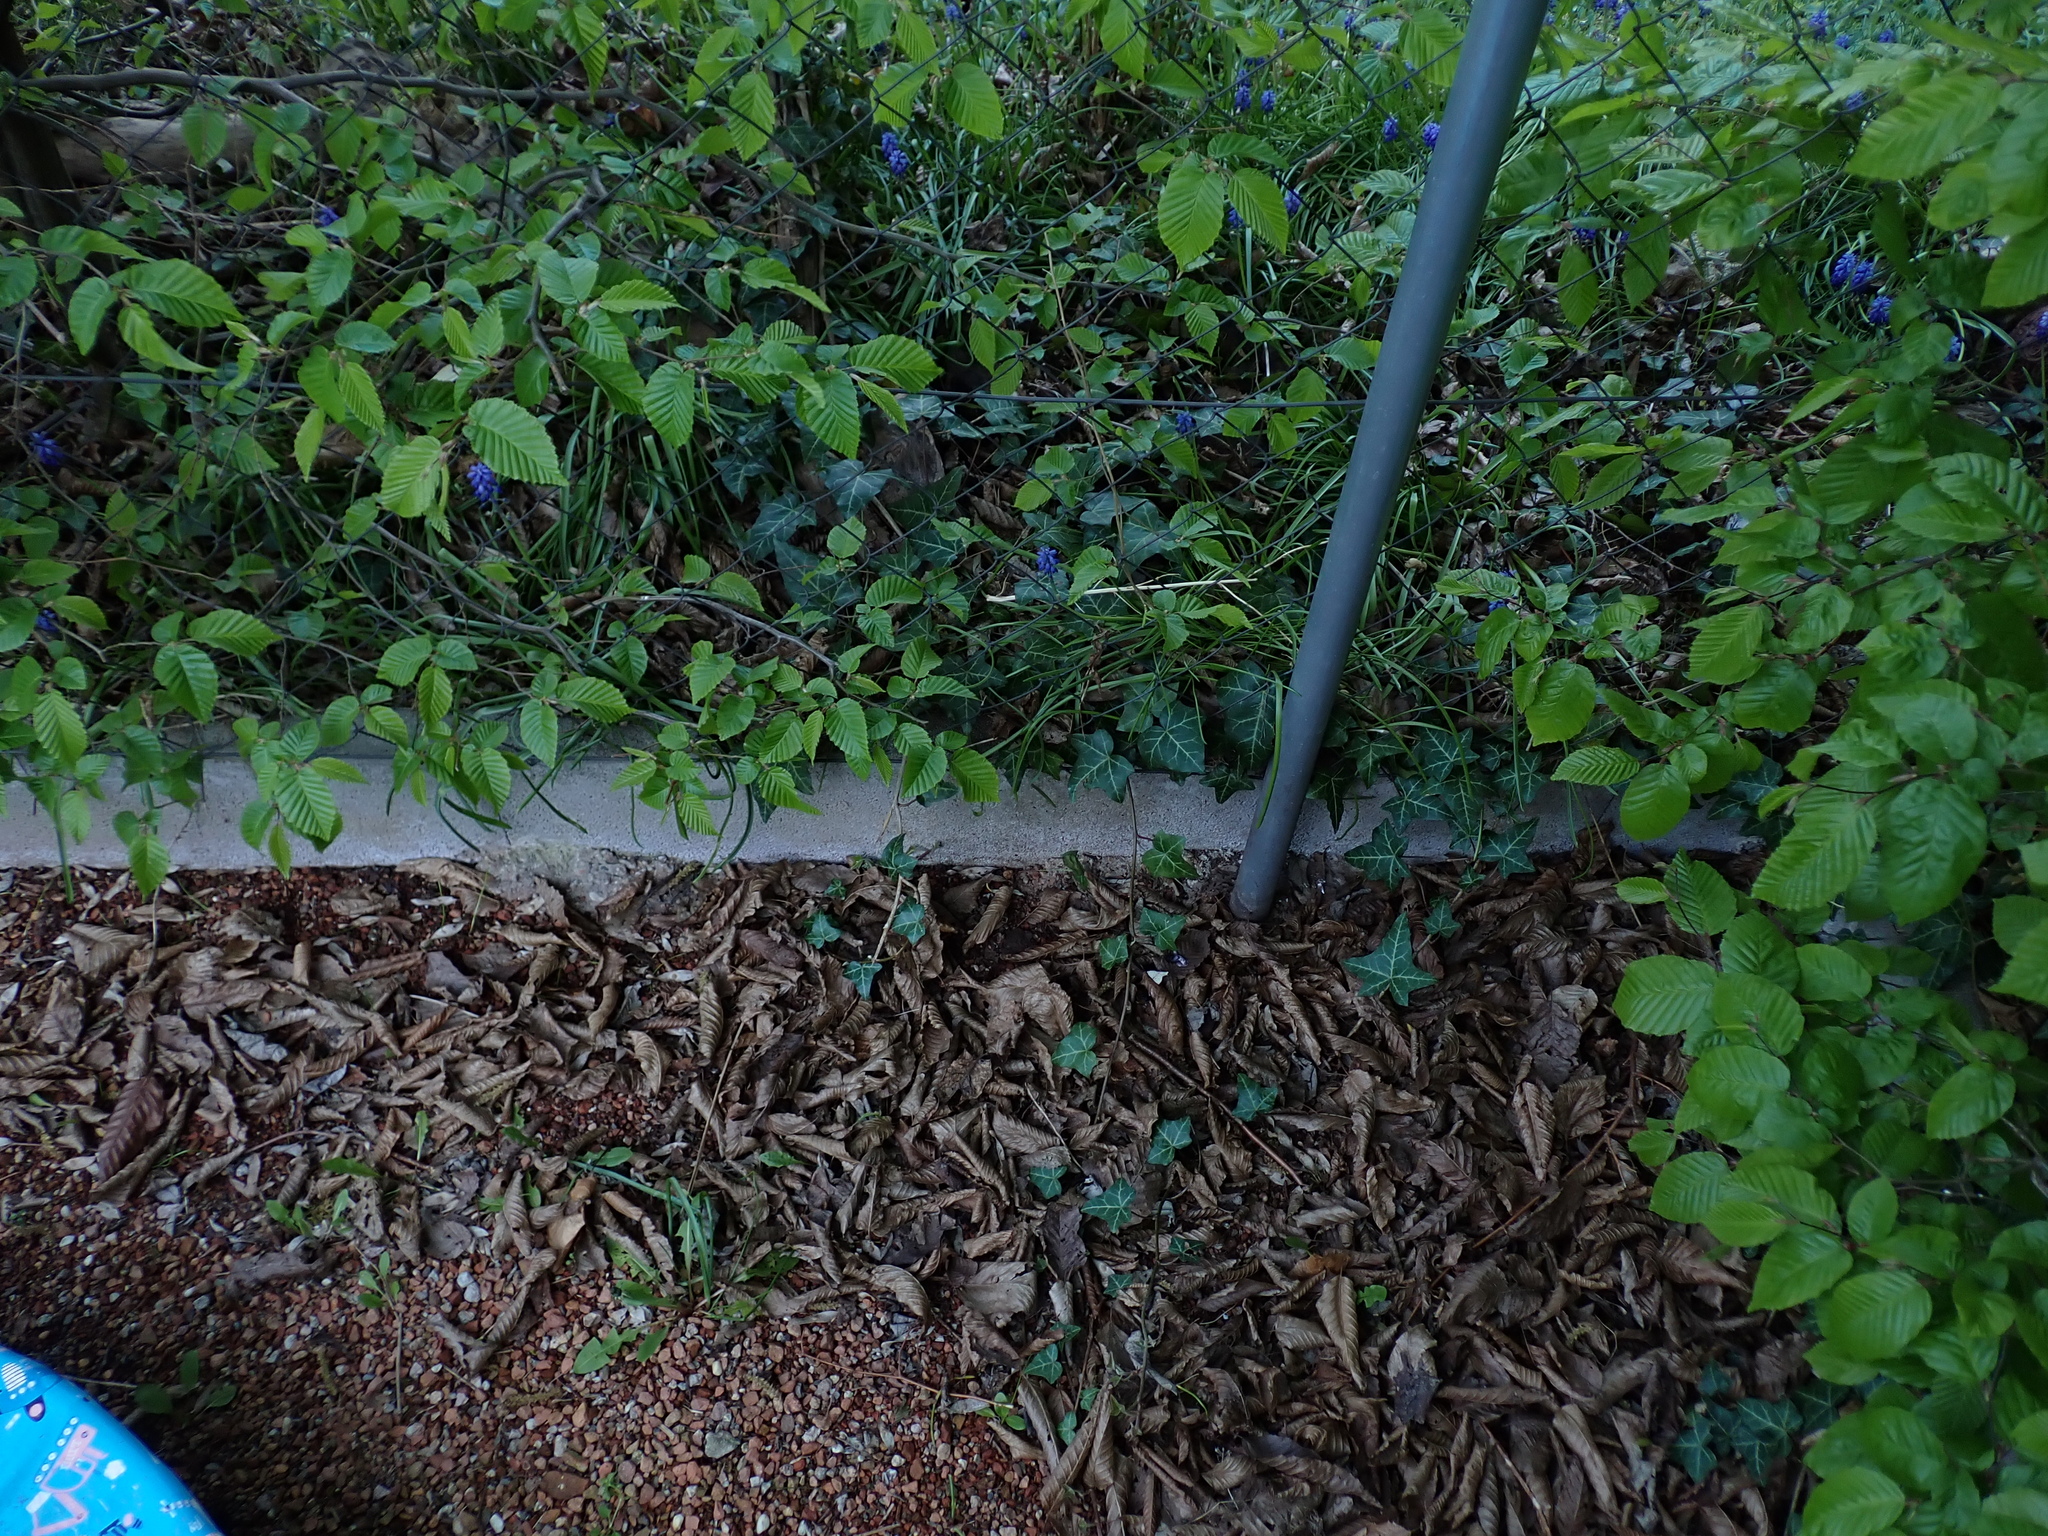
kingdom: Plantae
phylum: Tracheophyta
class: Liliopsida
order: Asparagales
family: Asparagaceae
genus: Muscari
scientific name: Muscari armeniacum
